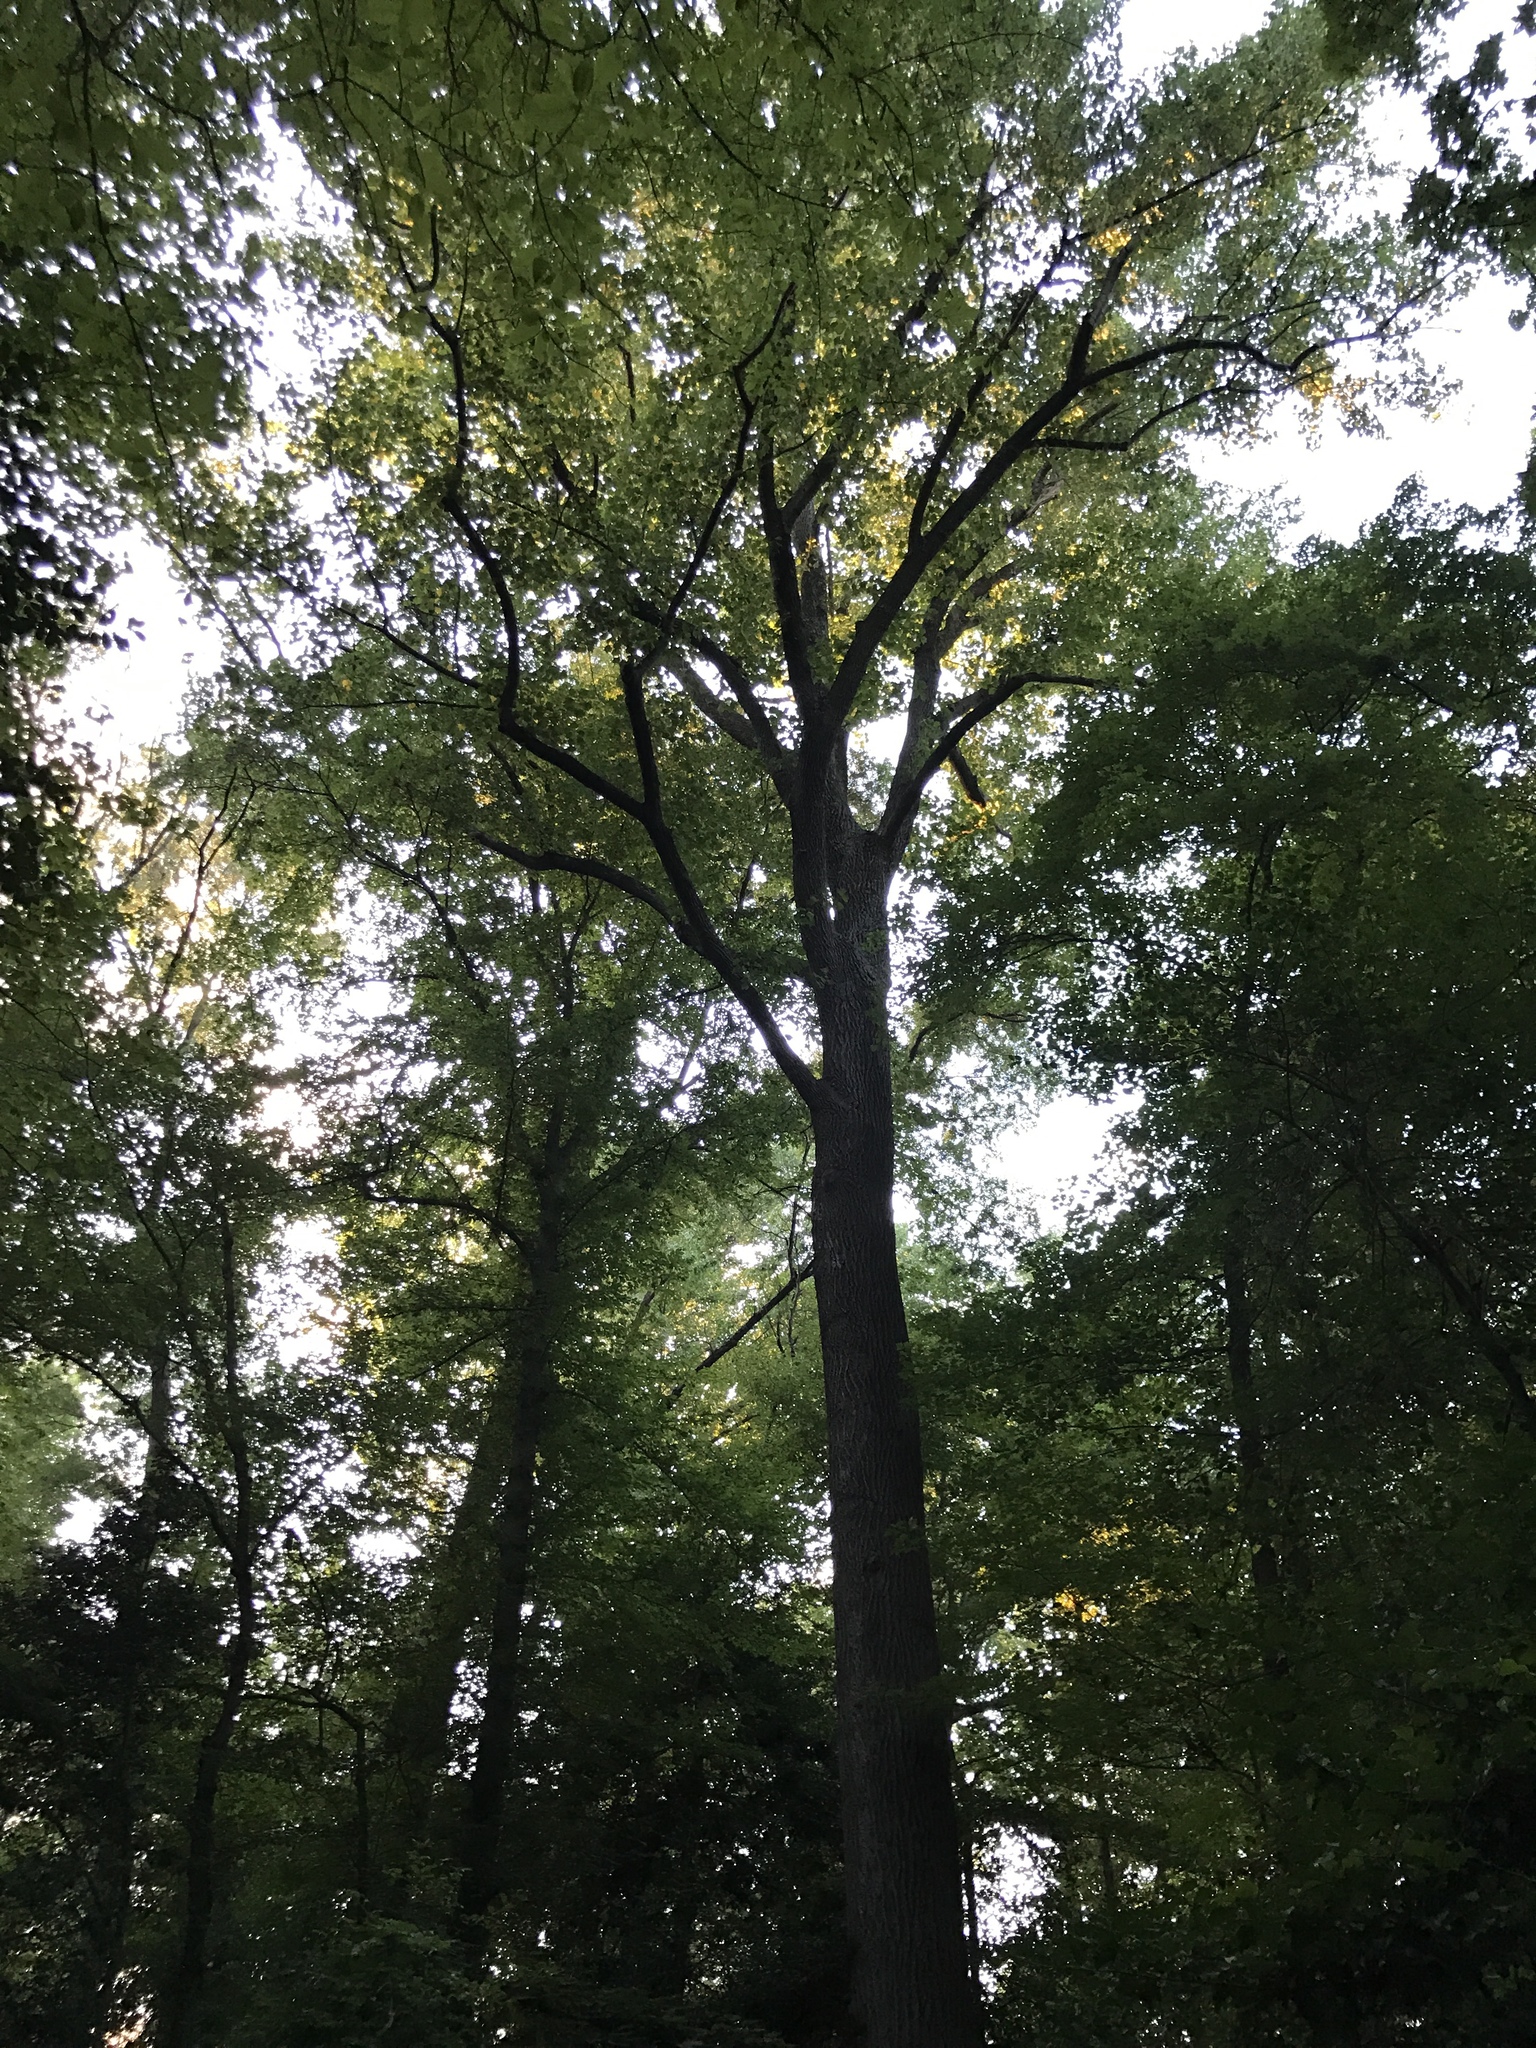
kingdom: Plantae
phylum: Tracheophyta
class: Magnoliopsida
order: Magnoliales
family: Magnoliaceae
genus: Liriodendron
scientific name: Liriodendron tulipifera
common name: Tulip tree
